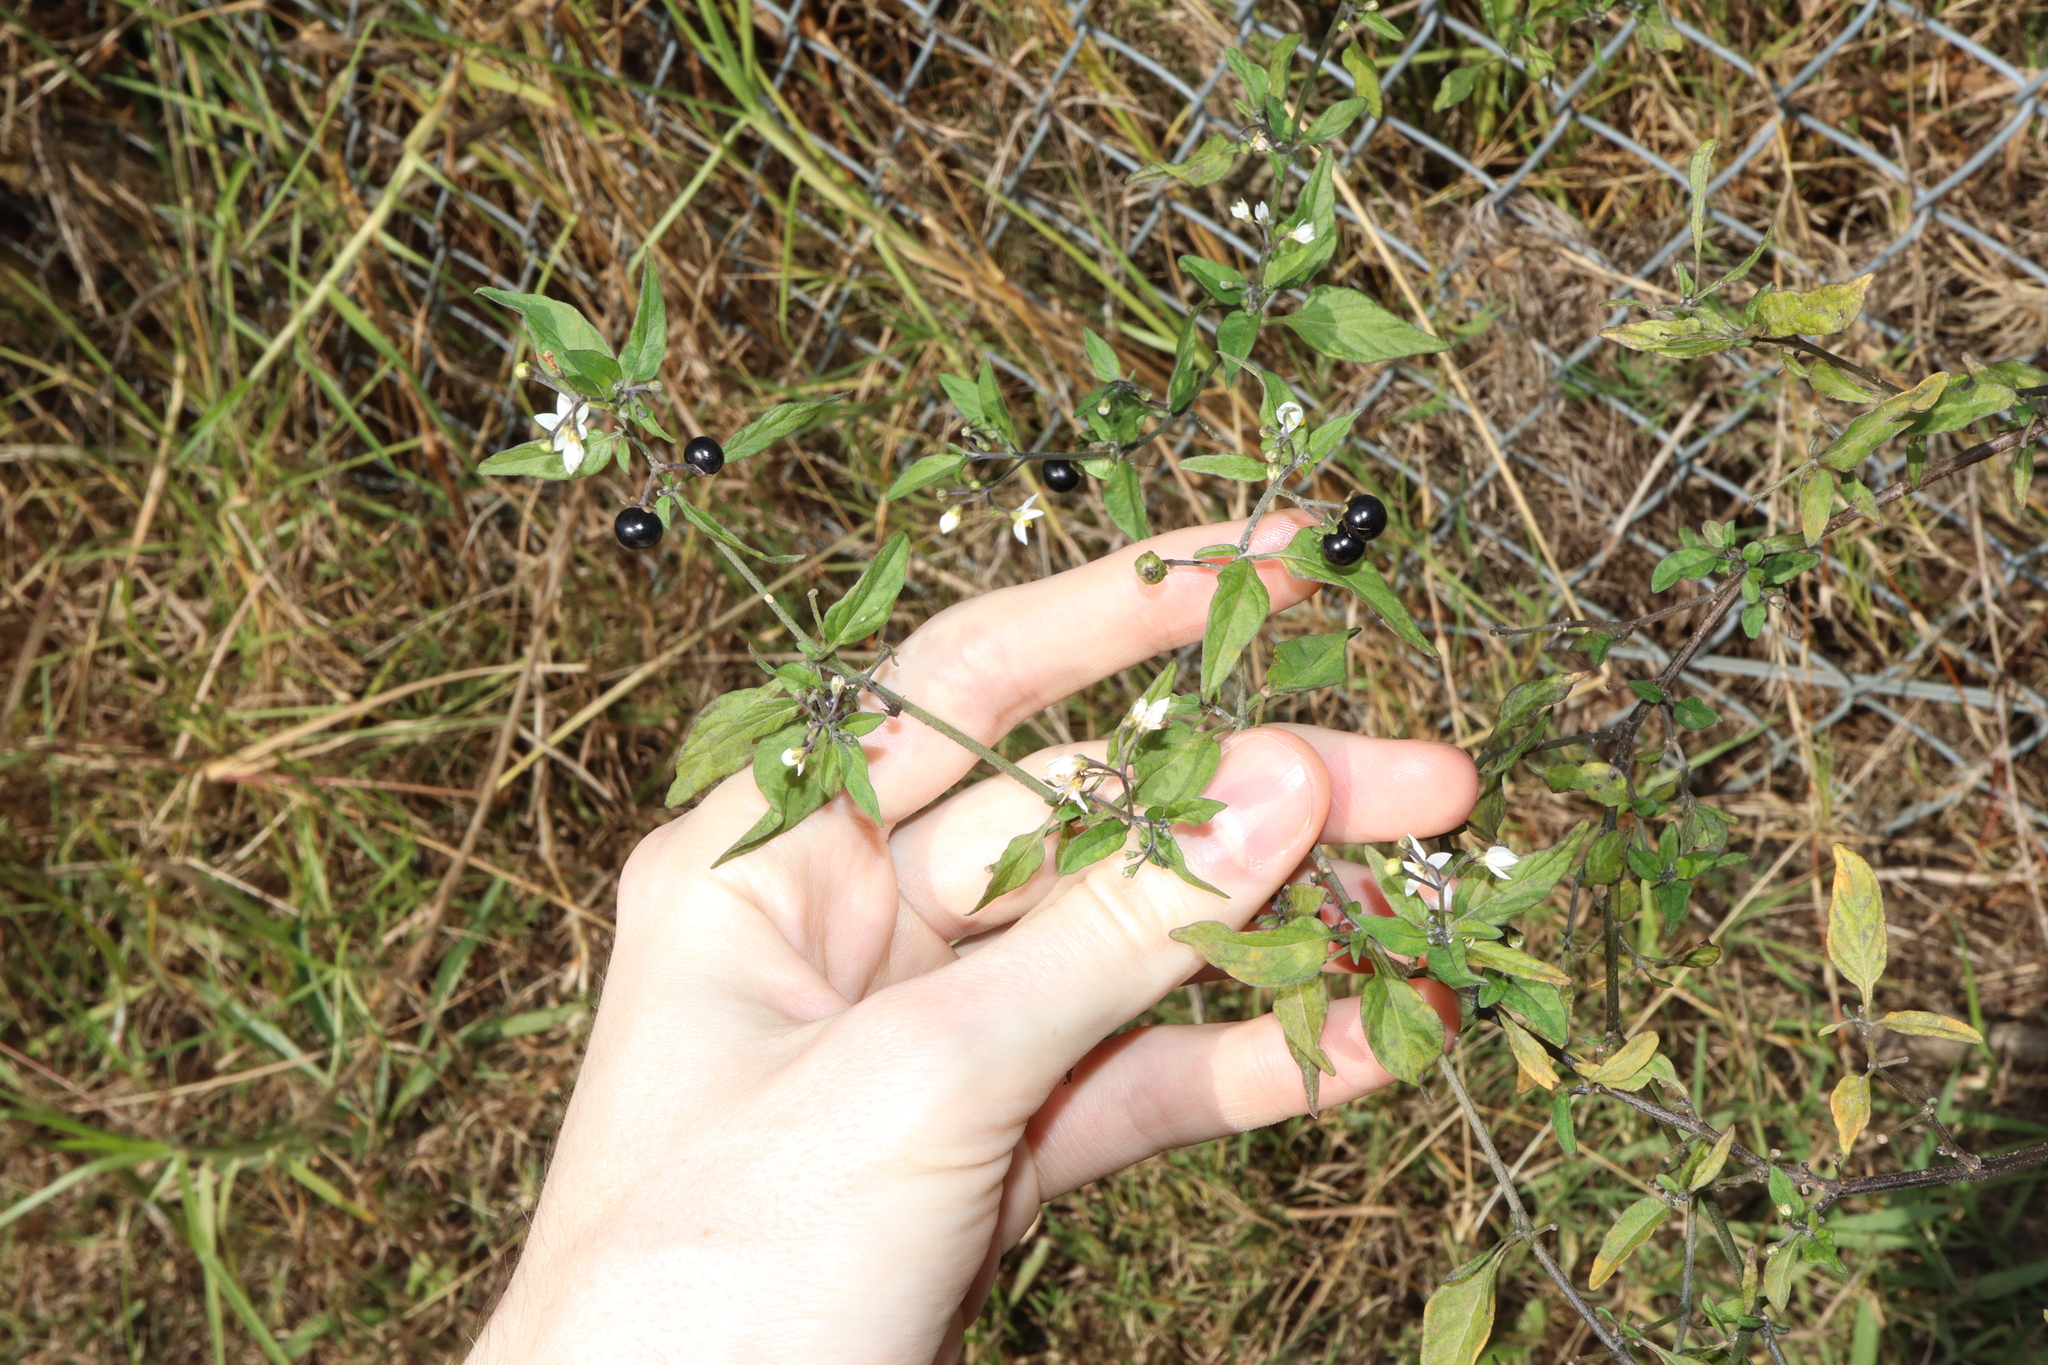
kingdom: Plantae
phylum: Tracheophyta
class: Magnoliopsida
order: Solanales
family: Solanaceae
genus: Solanum
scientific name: Solanum americanum
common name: American black nightshade
